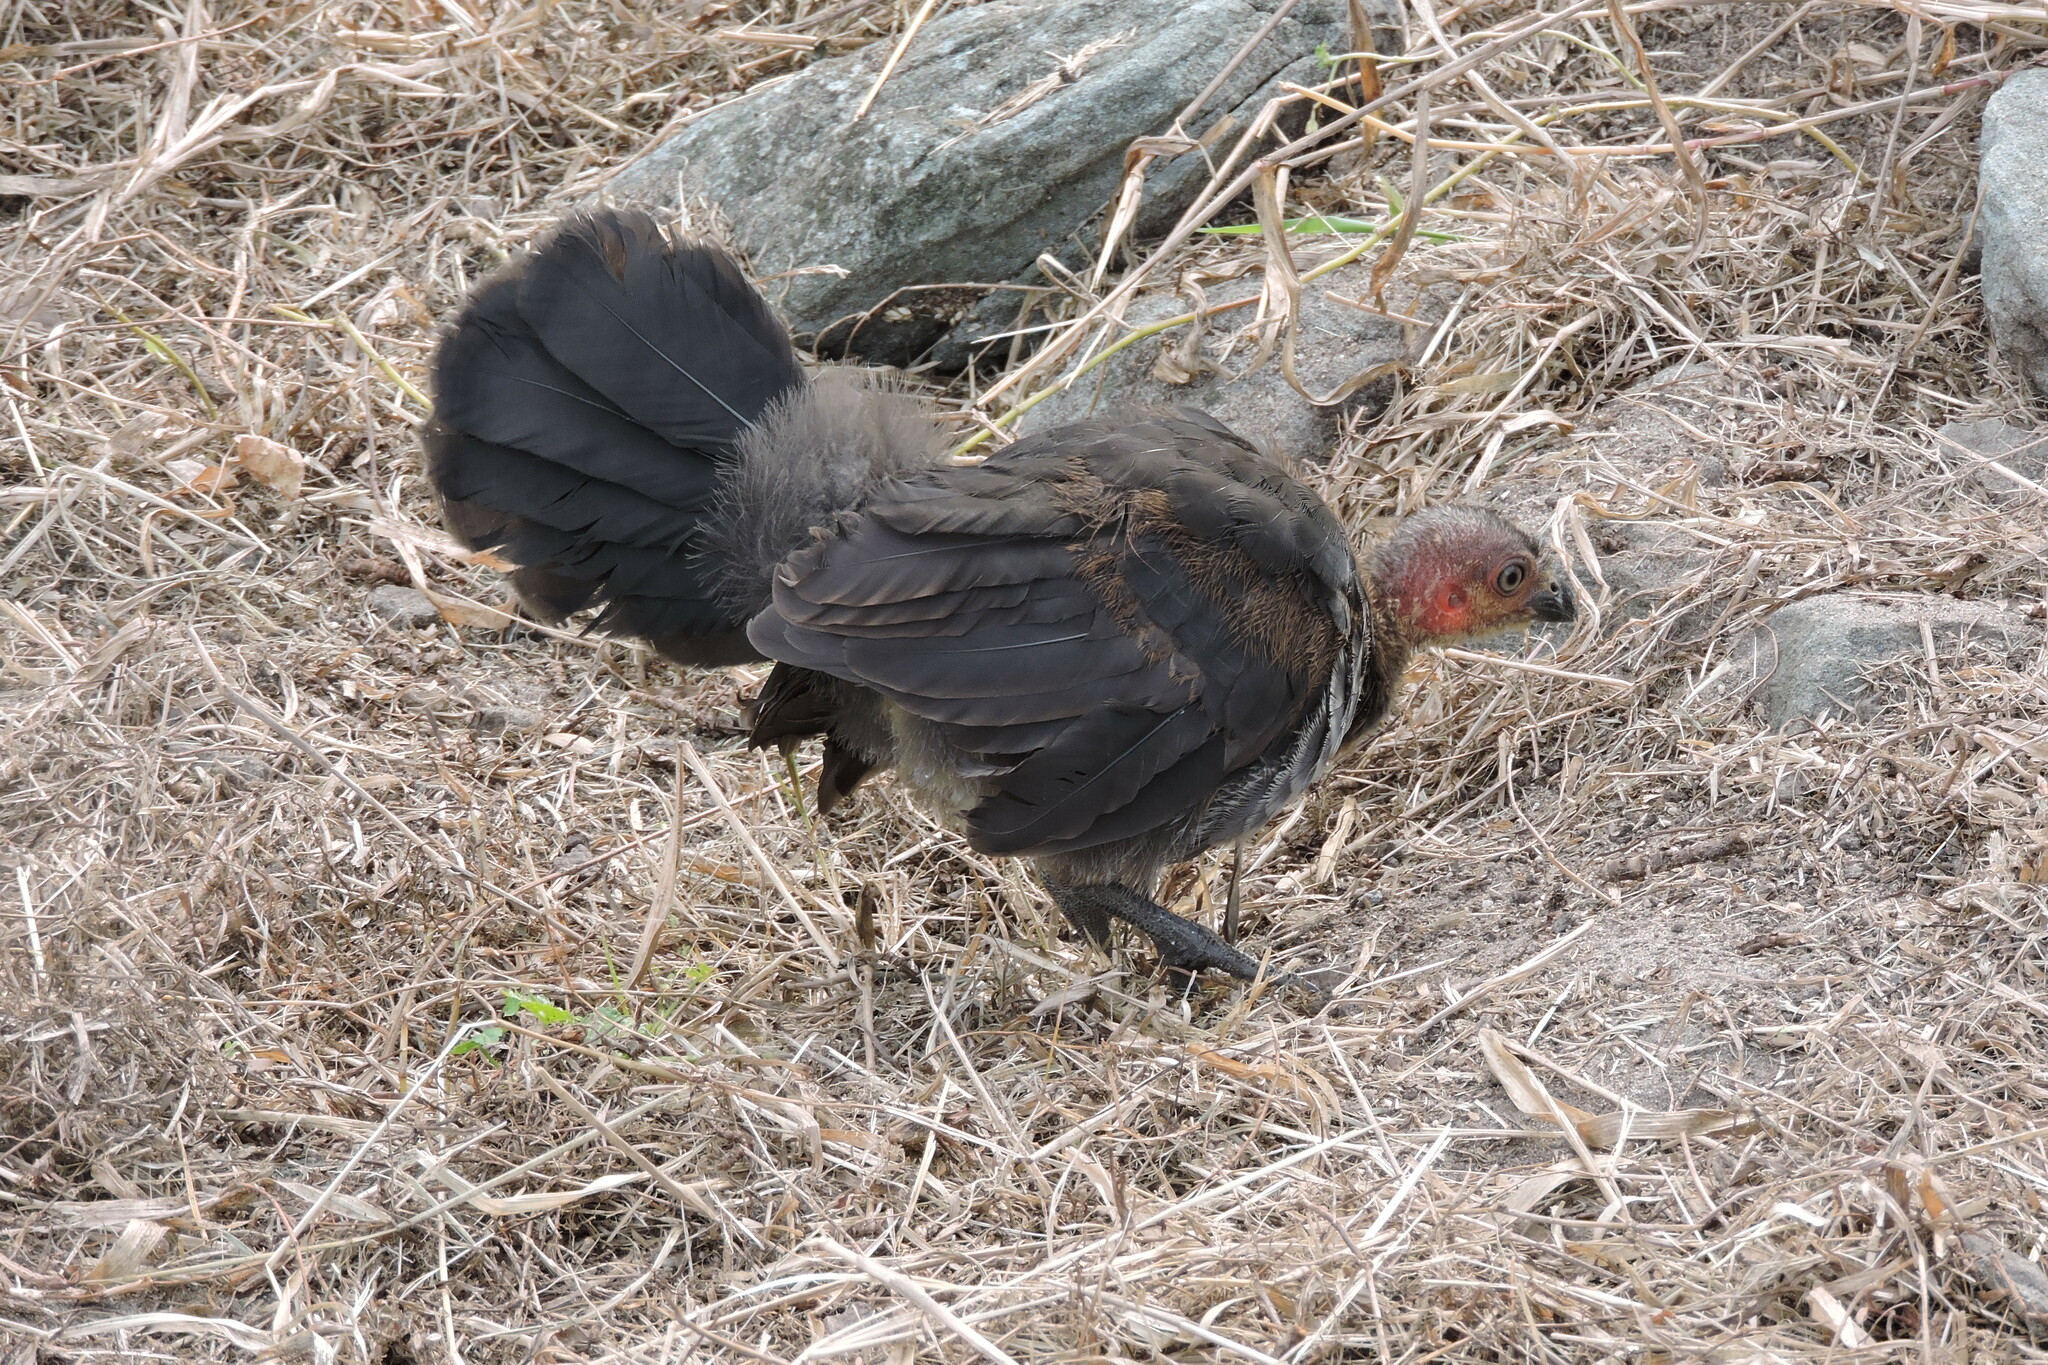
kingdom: Animalia
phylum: Chordata
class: Aves
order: Galliformes
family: Megapodiidae
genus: Alectura
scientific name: Alectura lathami
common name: Australian brushturkey
